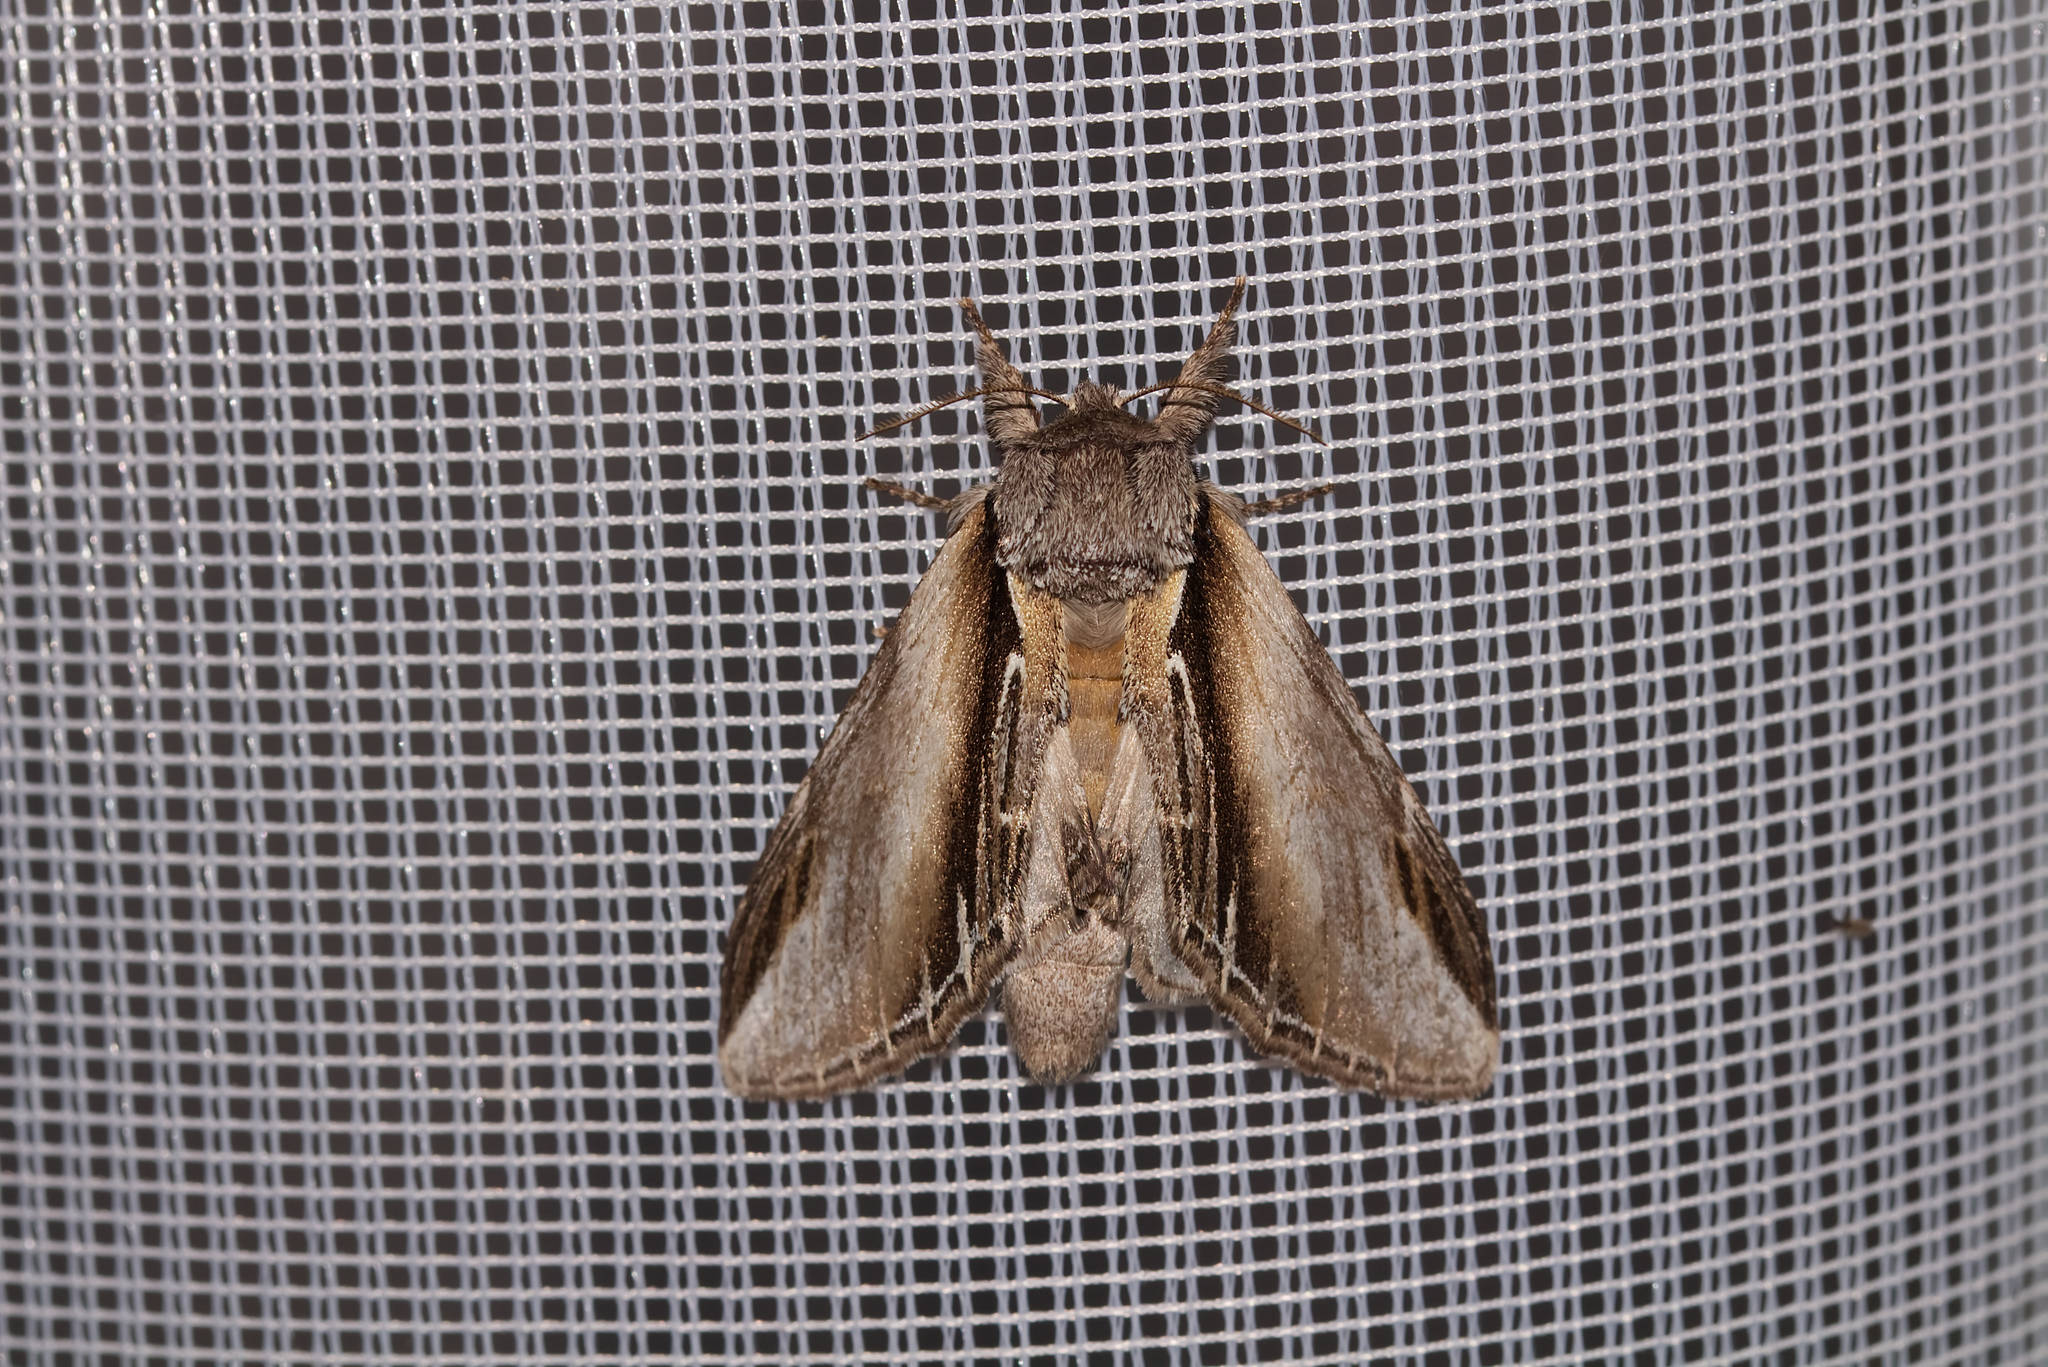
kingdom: Animalia
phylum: Arthropoda
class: Insecta
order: Lepidoptera
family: Notodontidae
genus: Pheosia
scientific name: Pheosia tremula
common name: Swallow prominent
